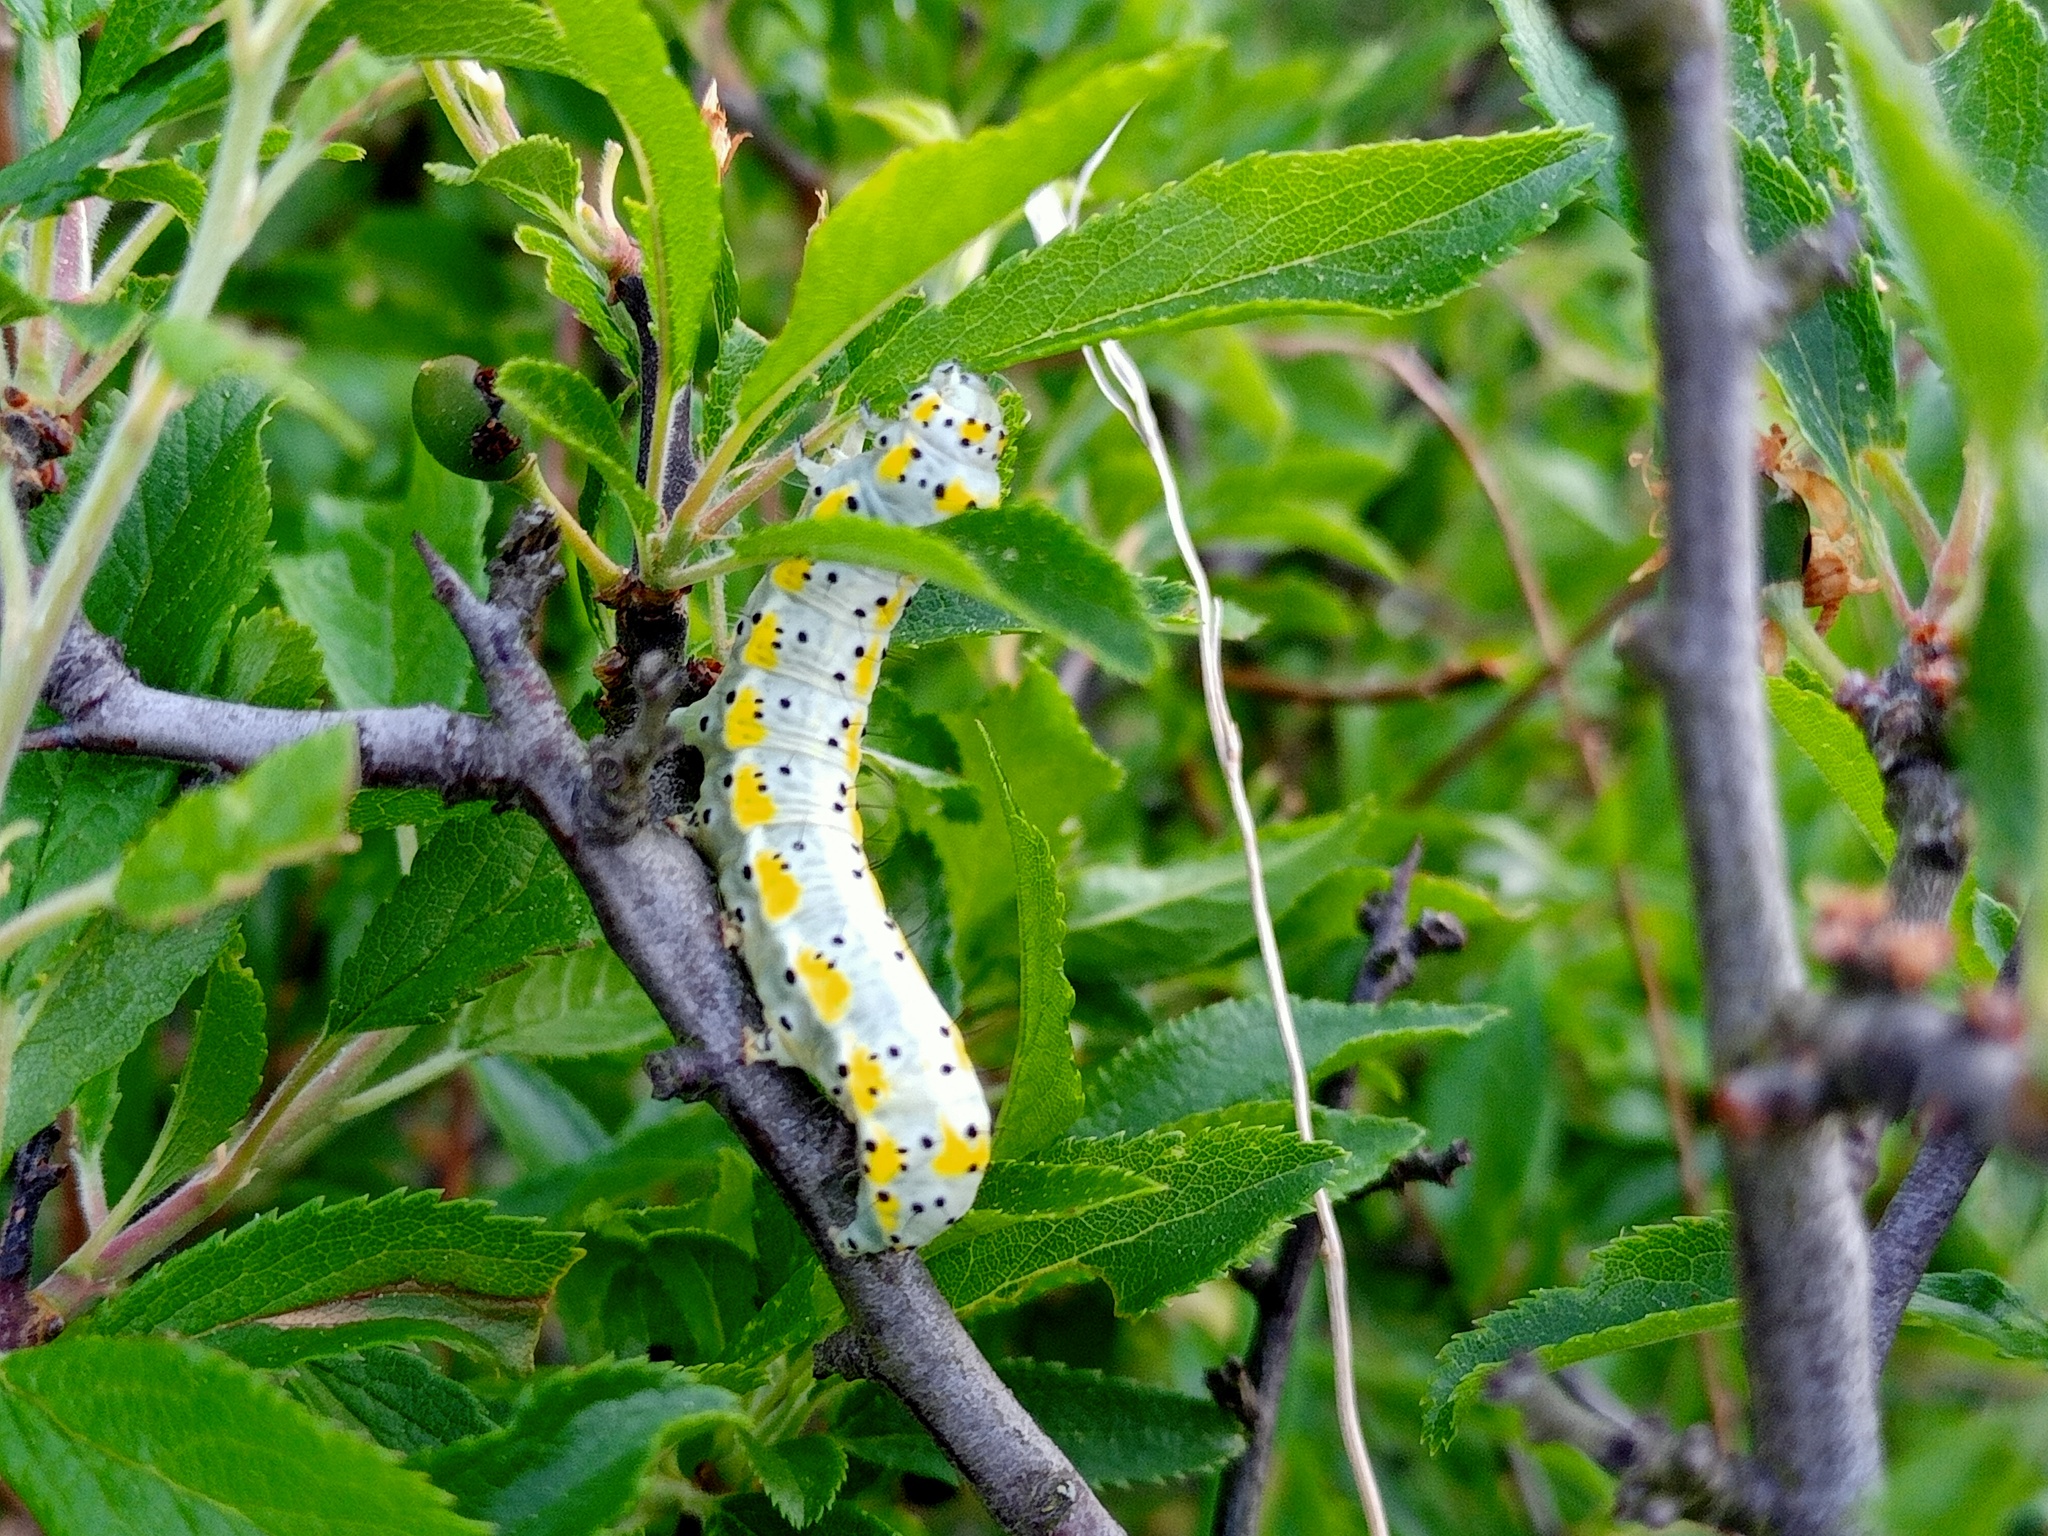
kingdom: Animalia
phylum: Arthropoda
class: Insecta
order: Lepidoptera
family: Noctuidae
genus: Diloba
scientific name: Diloba caeruleocephala
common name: Figure of eight
